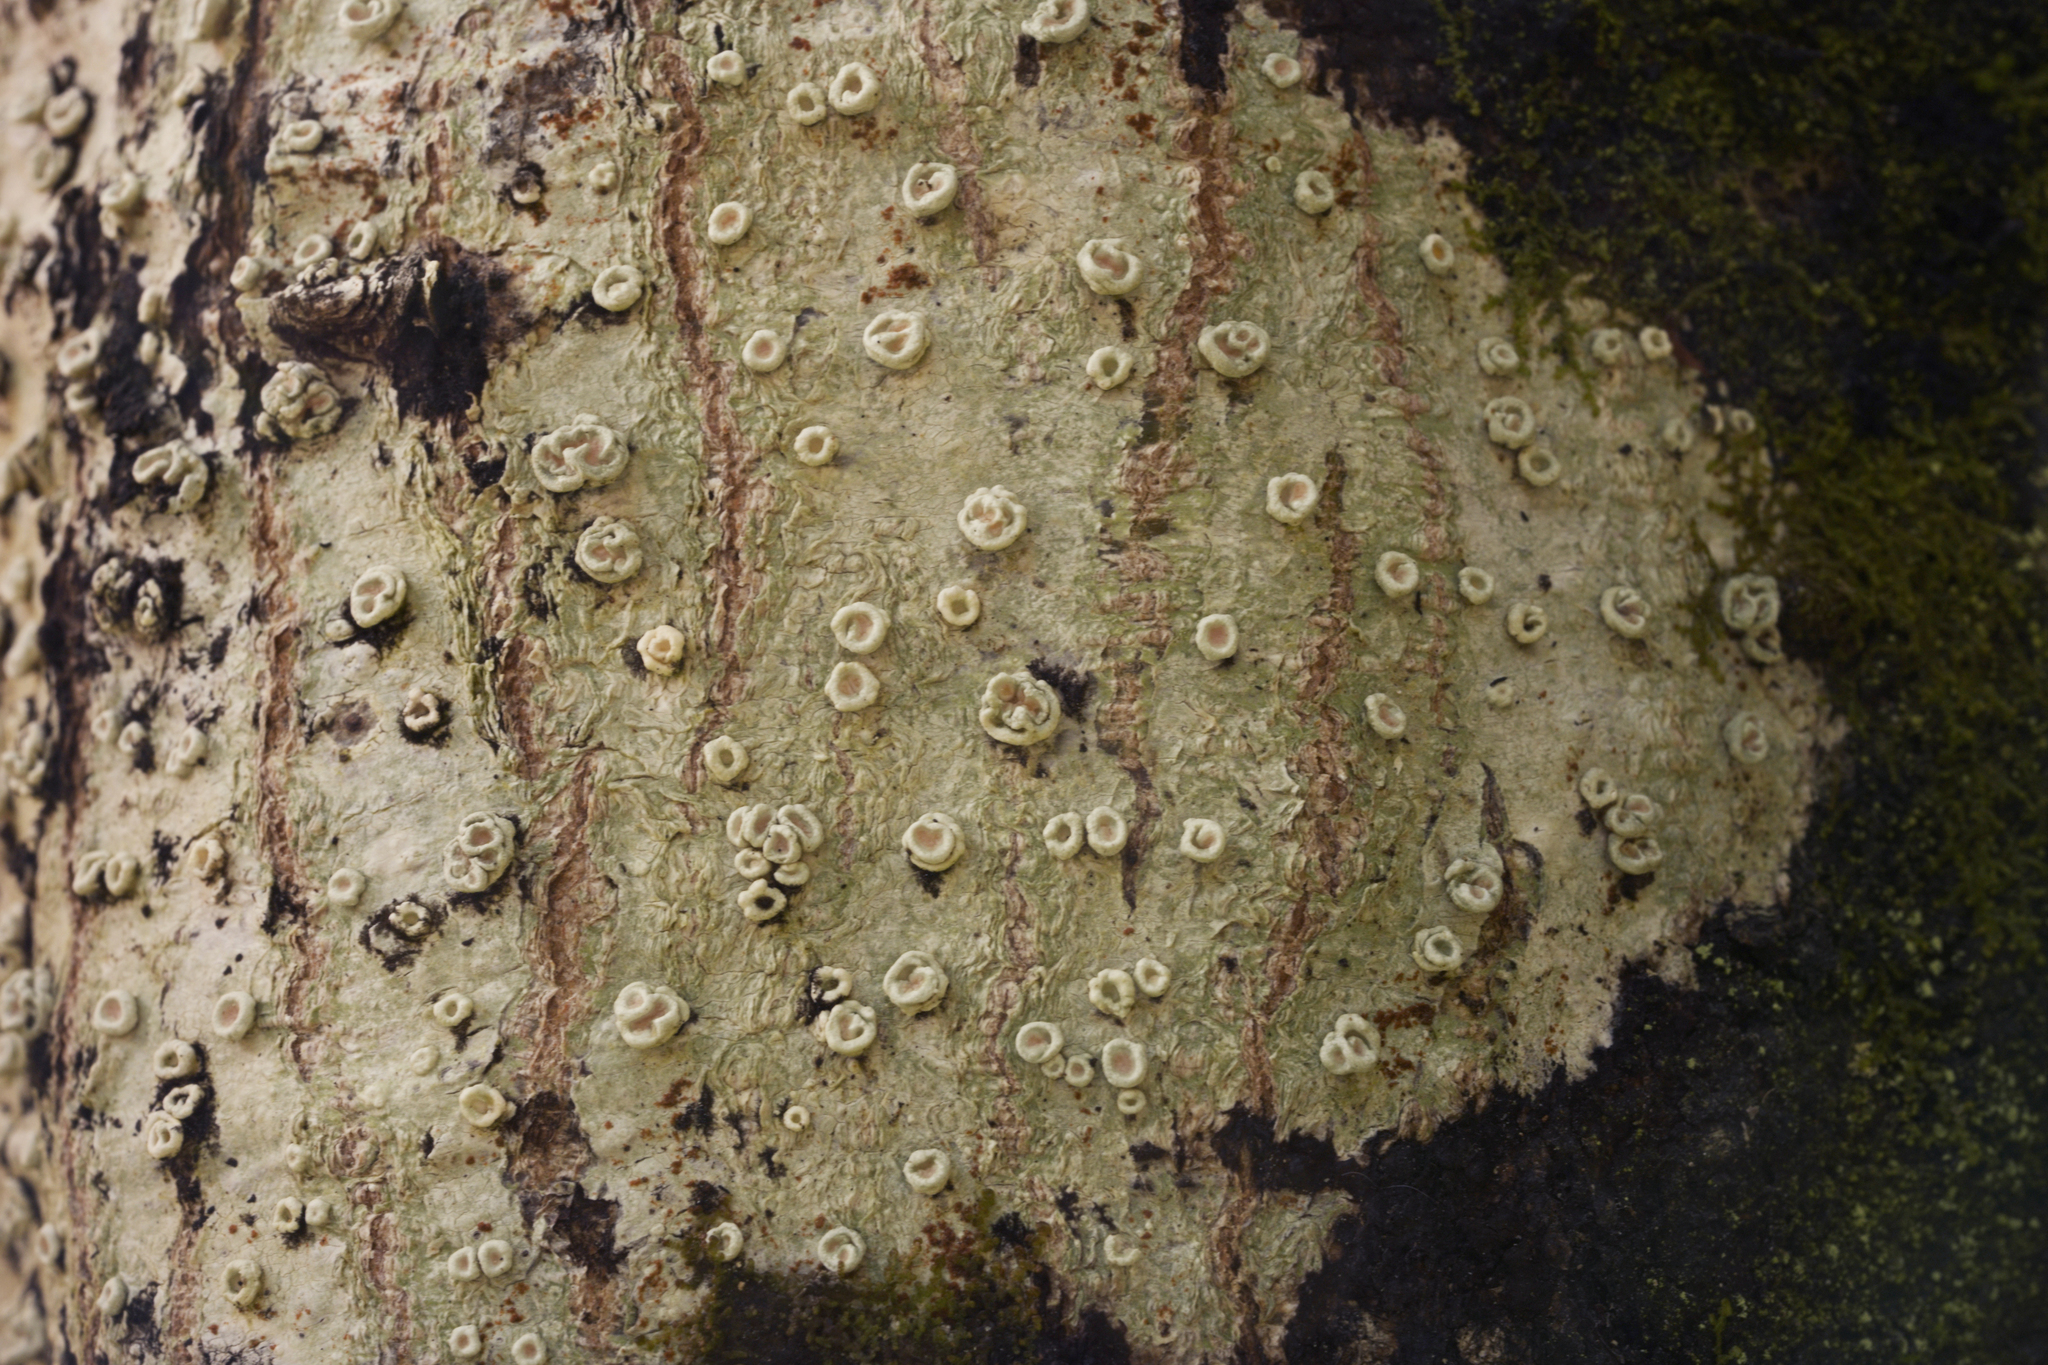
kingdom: Fungi
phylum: Ascomycota
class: Lecanoromycetes
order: Pertusariales
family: Ochrolechiaceae
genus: Ochrolechia
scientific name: Ochrolechia pallescens
